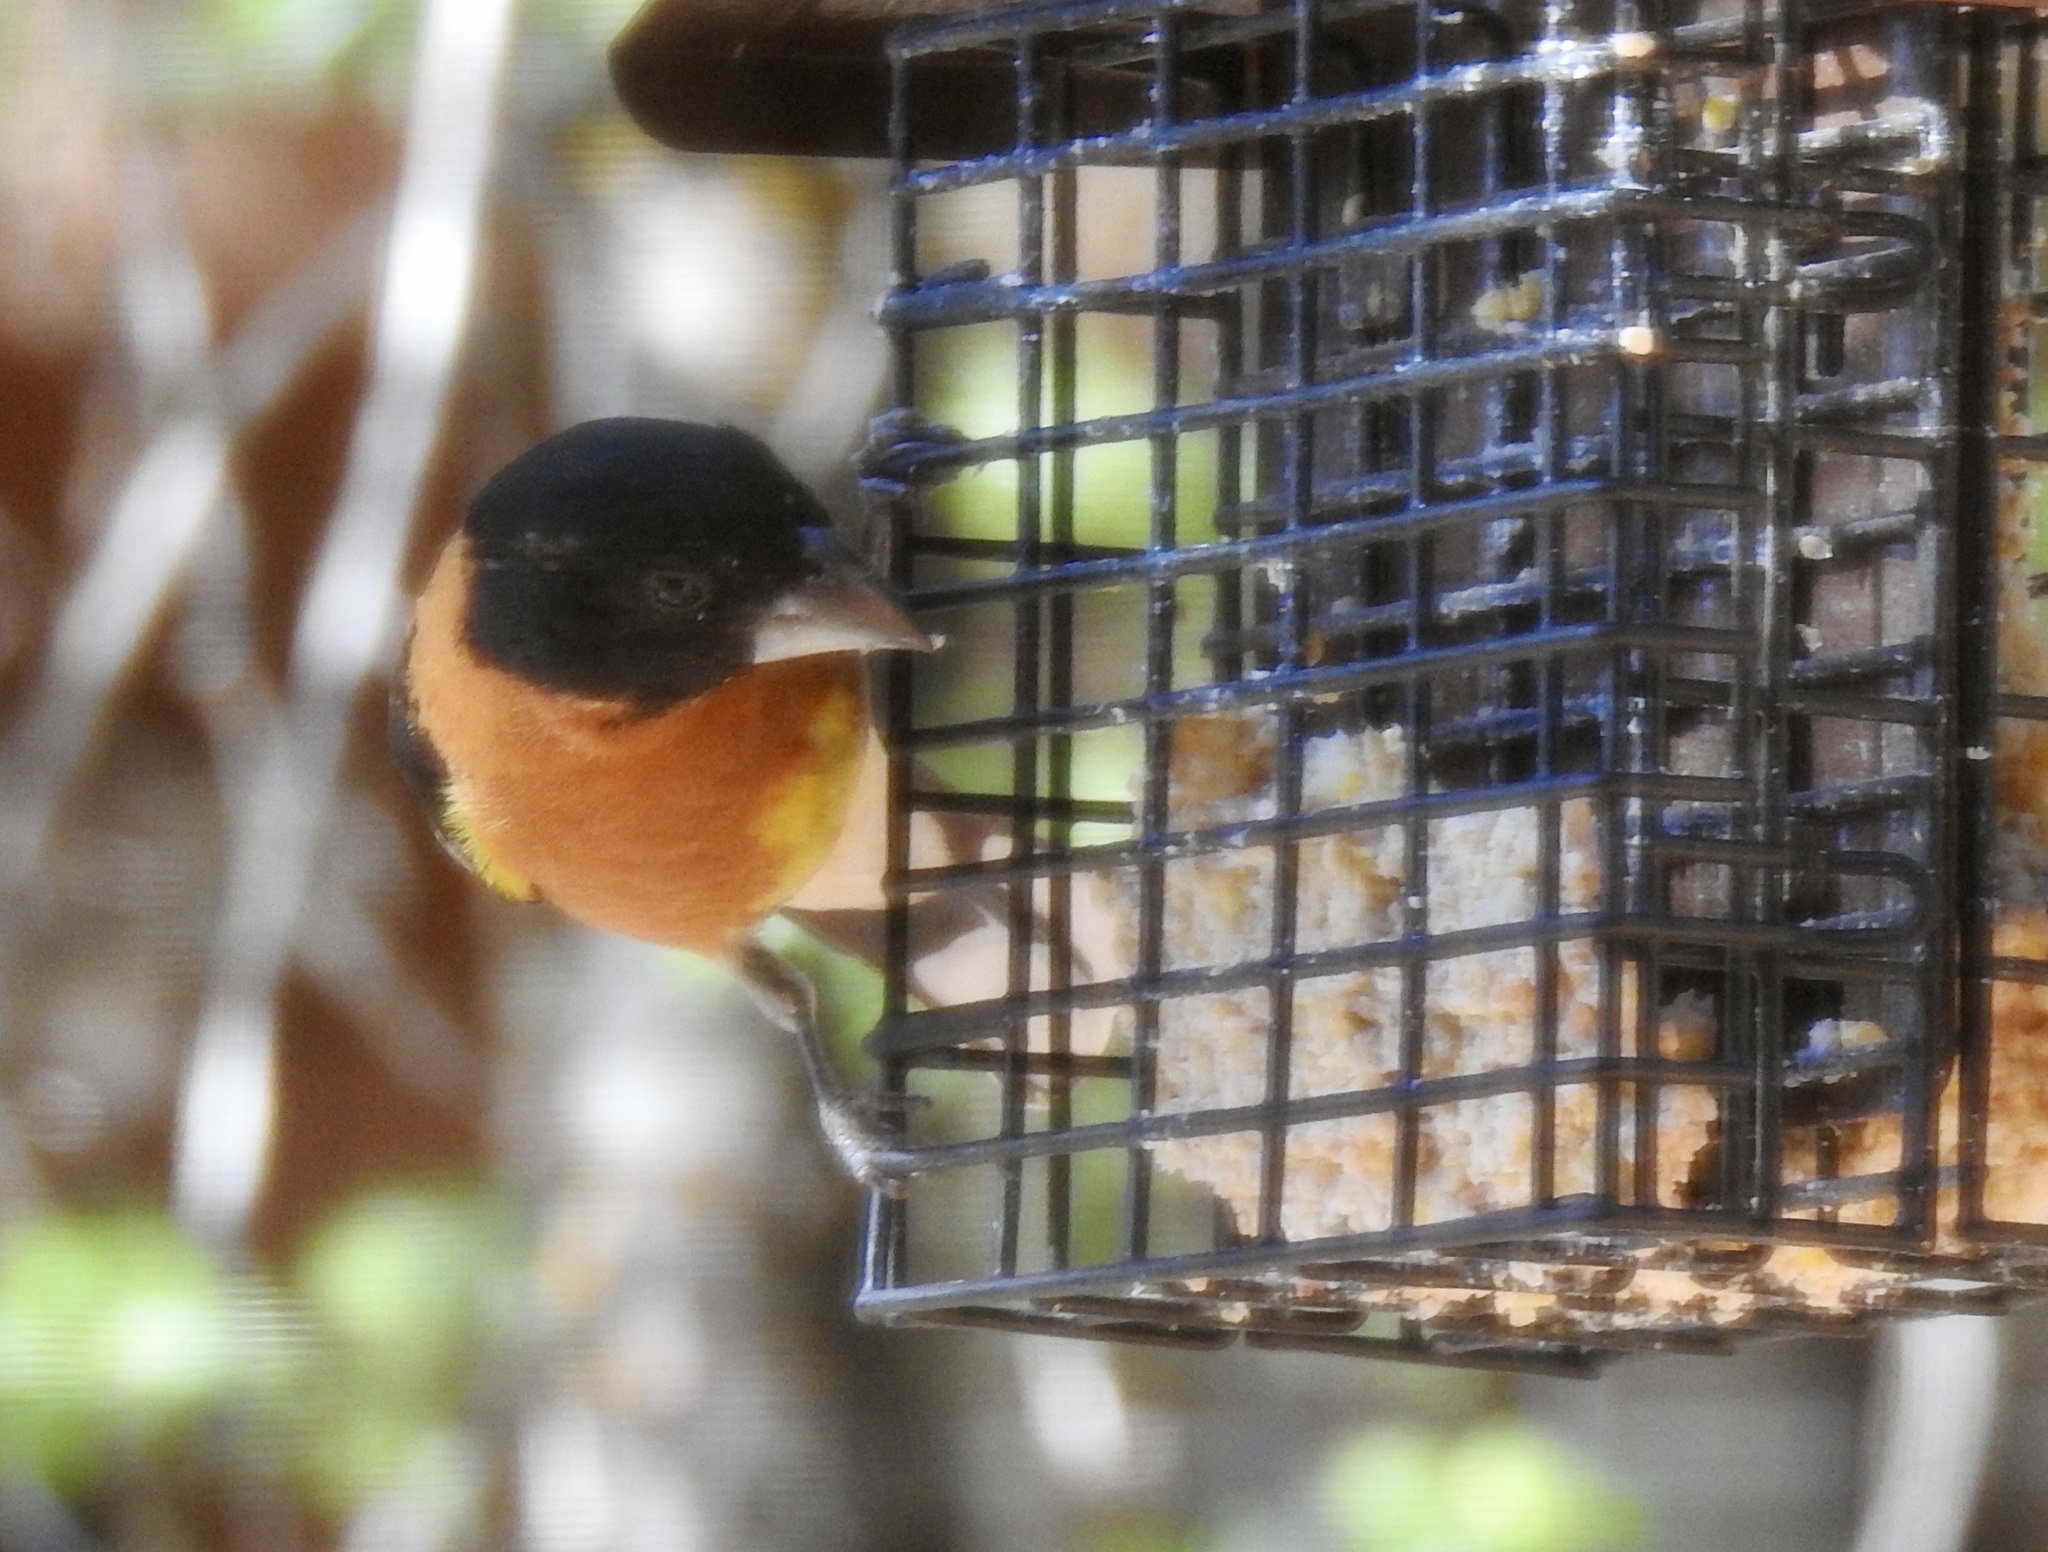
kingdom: Animalia
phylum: Chordata
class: Aves
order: Passeriformes
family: Cardinalidae
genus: Pheucticus
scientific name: Pheucticus melanocephalus
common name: Black-headed grosbeak
